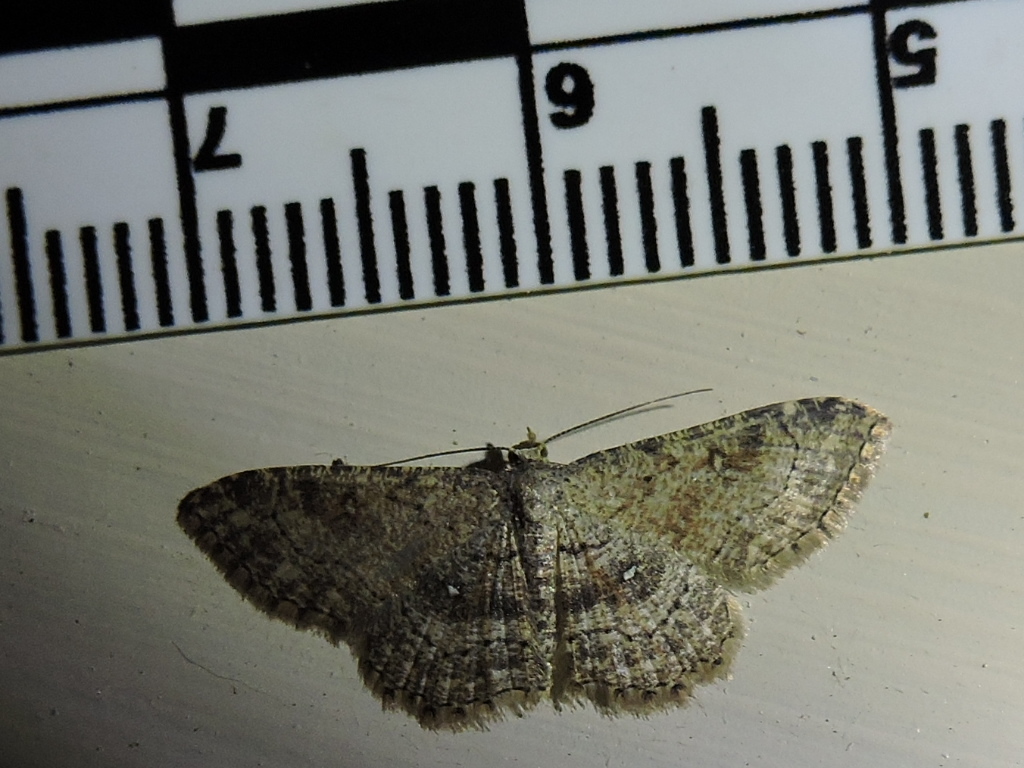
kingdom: Animalia
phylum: Arthropoda
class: Insecta
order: Lepidoptera
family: Geometridae
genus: Cyclophora
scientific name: Cyclophora nanaria
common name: Cankerworm
